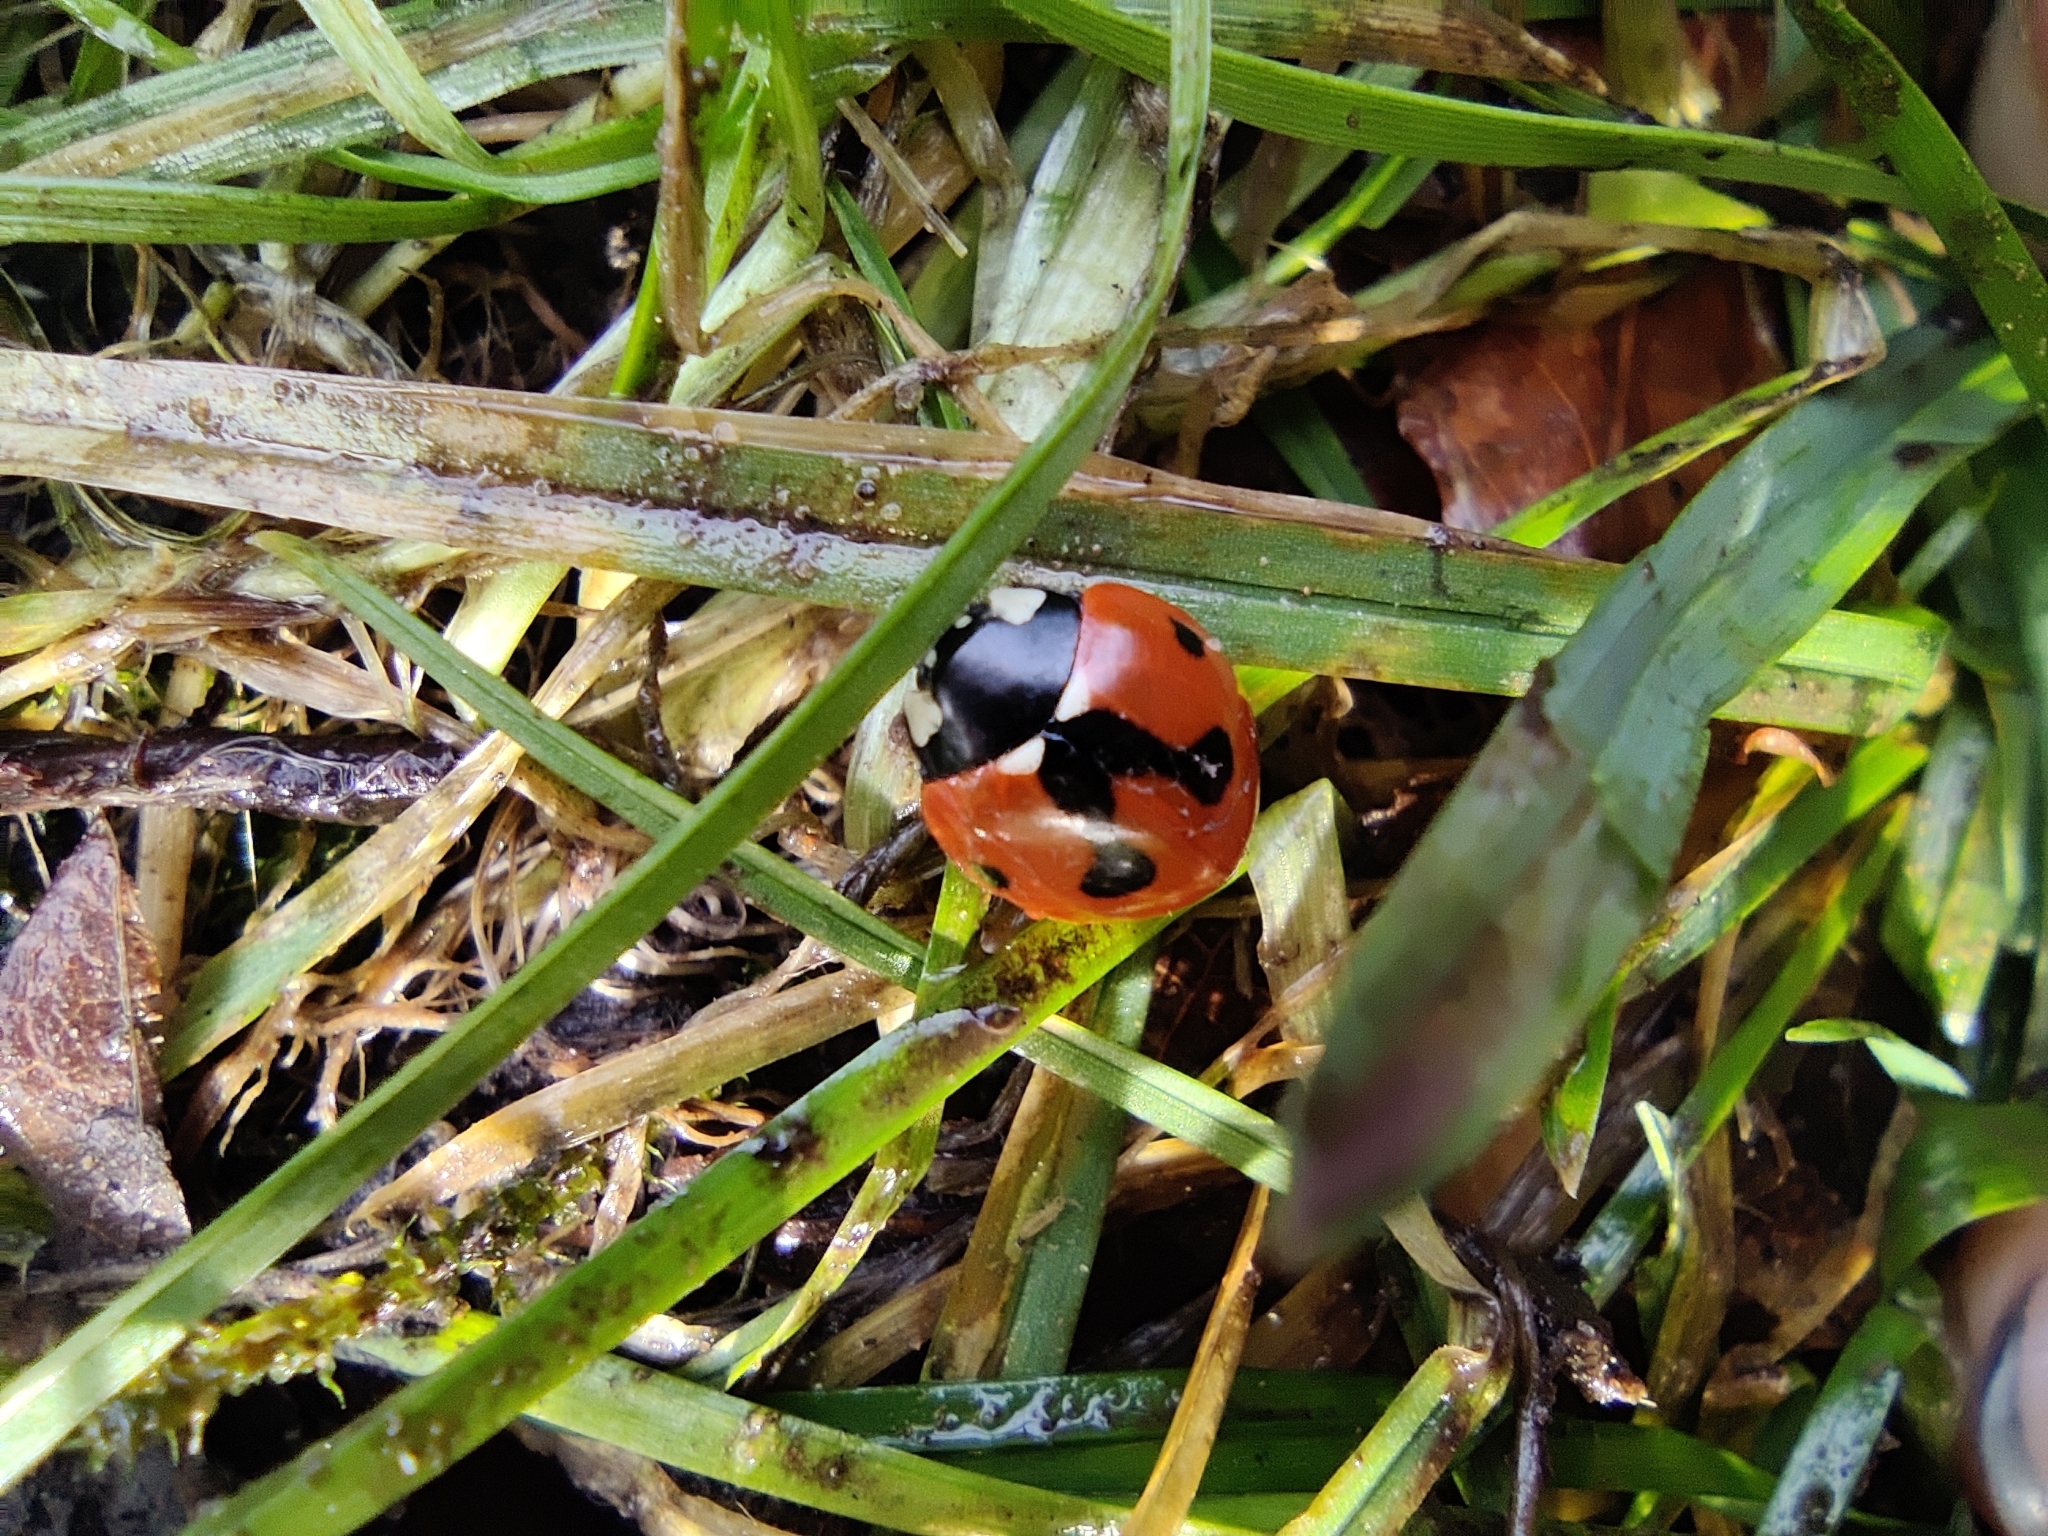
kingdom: Animalia
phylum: Arthropoda
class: Insecta
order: Coleoptera
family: Coccinellidae
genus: Coccinella
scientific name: Coccinella septempunctata
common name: Sevenspotted lady beetle
